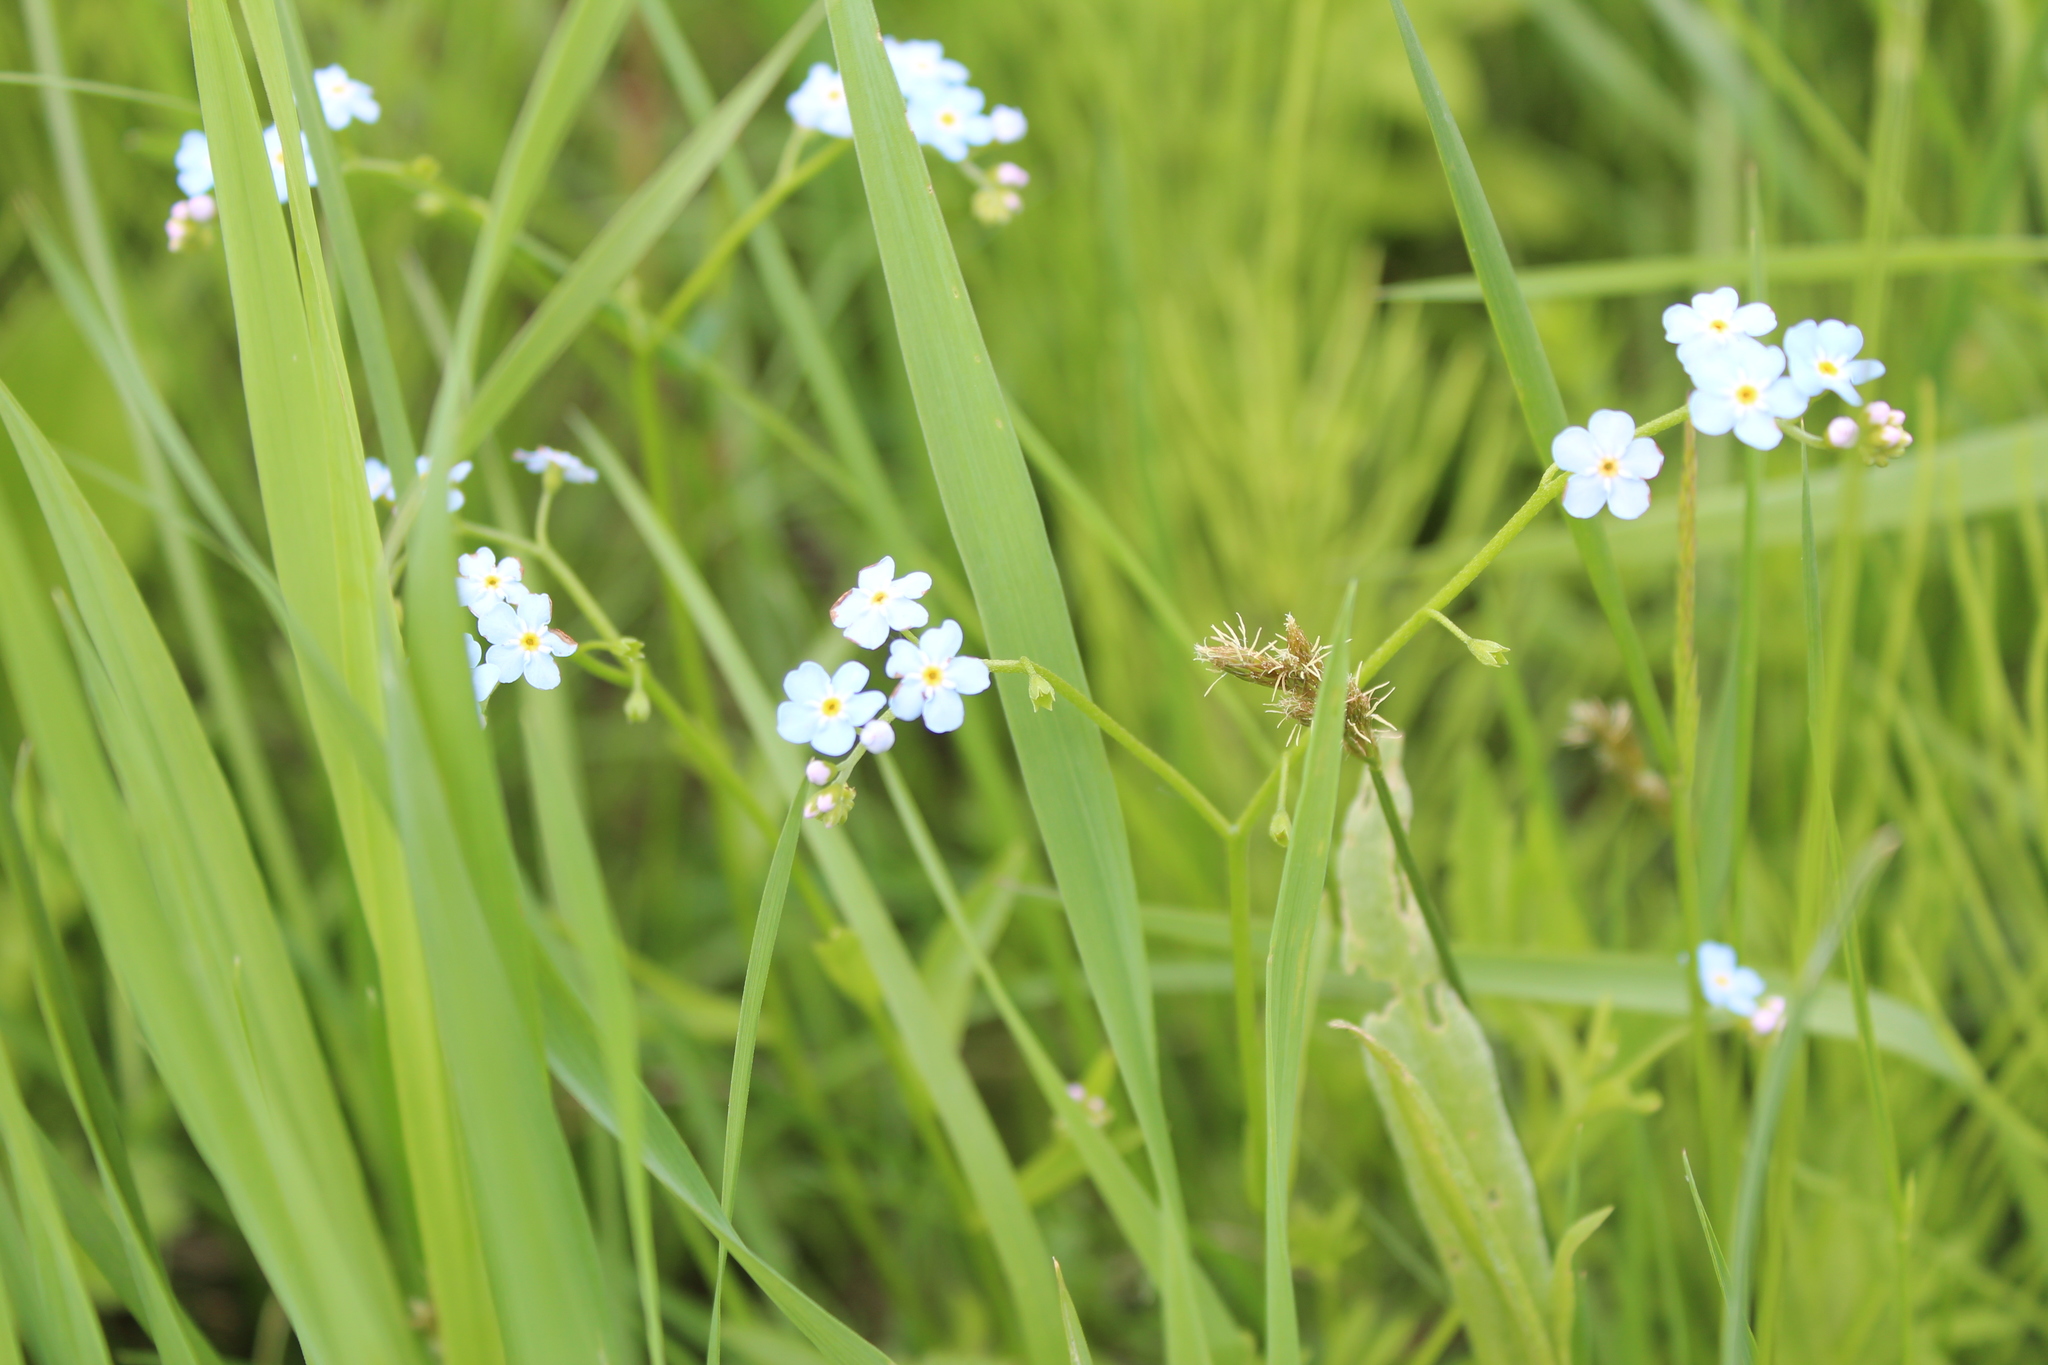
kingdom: Plantae
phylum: Tracheophyta
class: Magnoliopsida
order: Boraginales
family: Boraginaceae
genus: Myosotis
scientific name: Myosotis scorpioides
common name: Water forget-me-not
